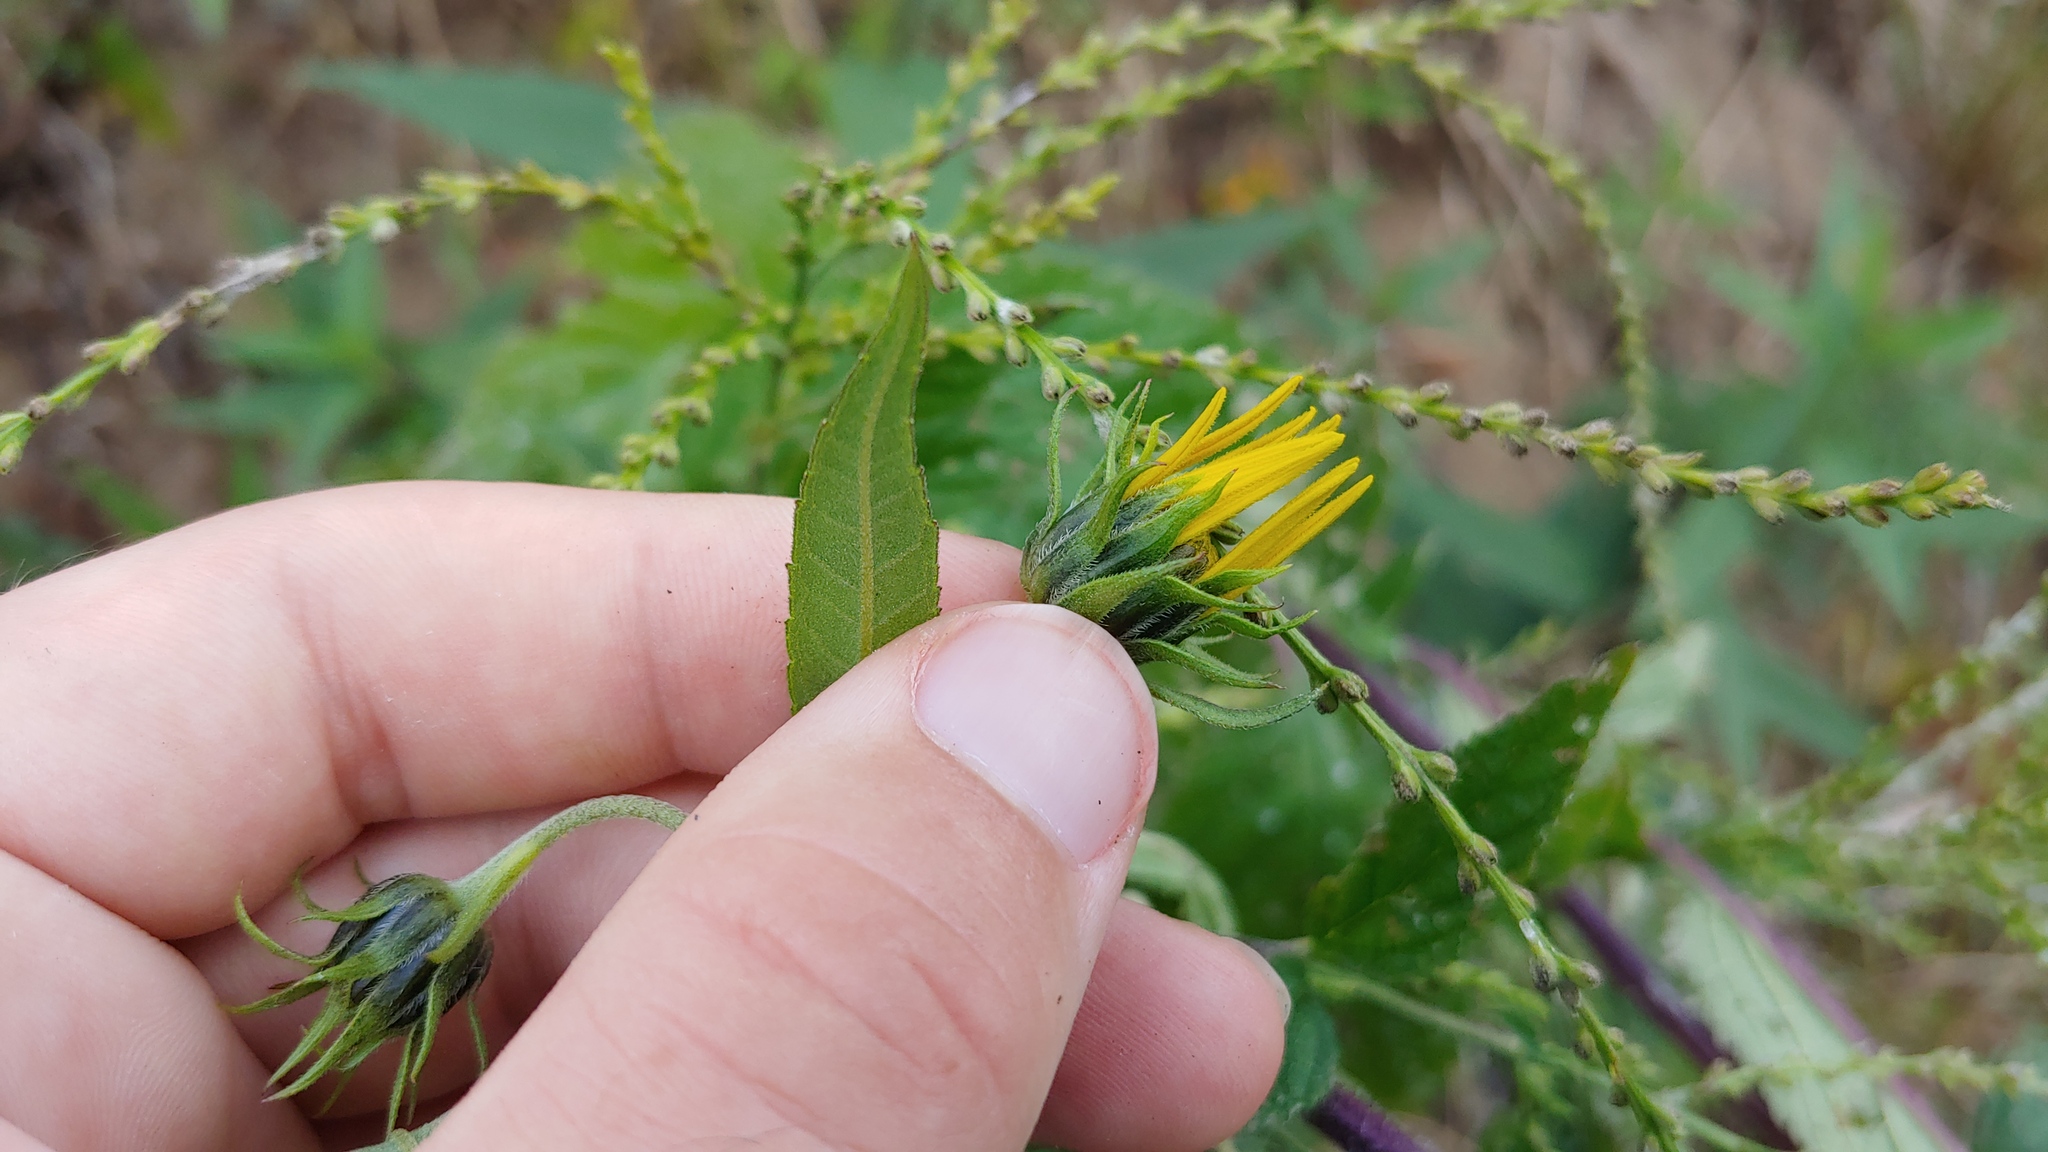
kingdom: Plantae
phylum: Tracheophyta
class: Magnoliopsida
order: Asterales
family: Asteraceae
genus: Helianthus
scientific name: Helianthus tuberosus
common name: Jerusalem artichoke
